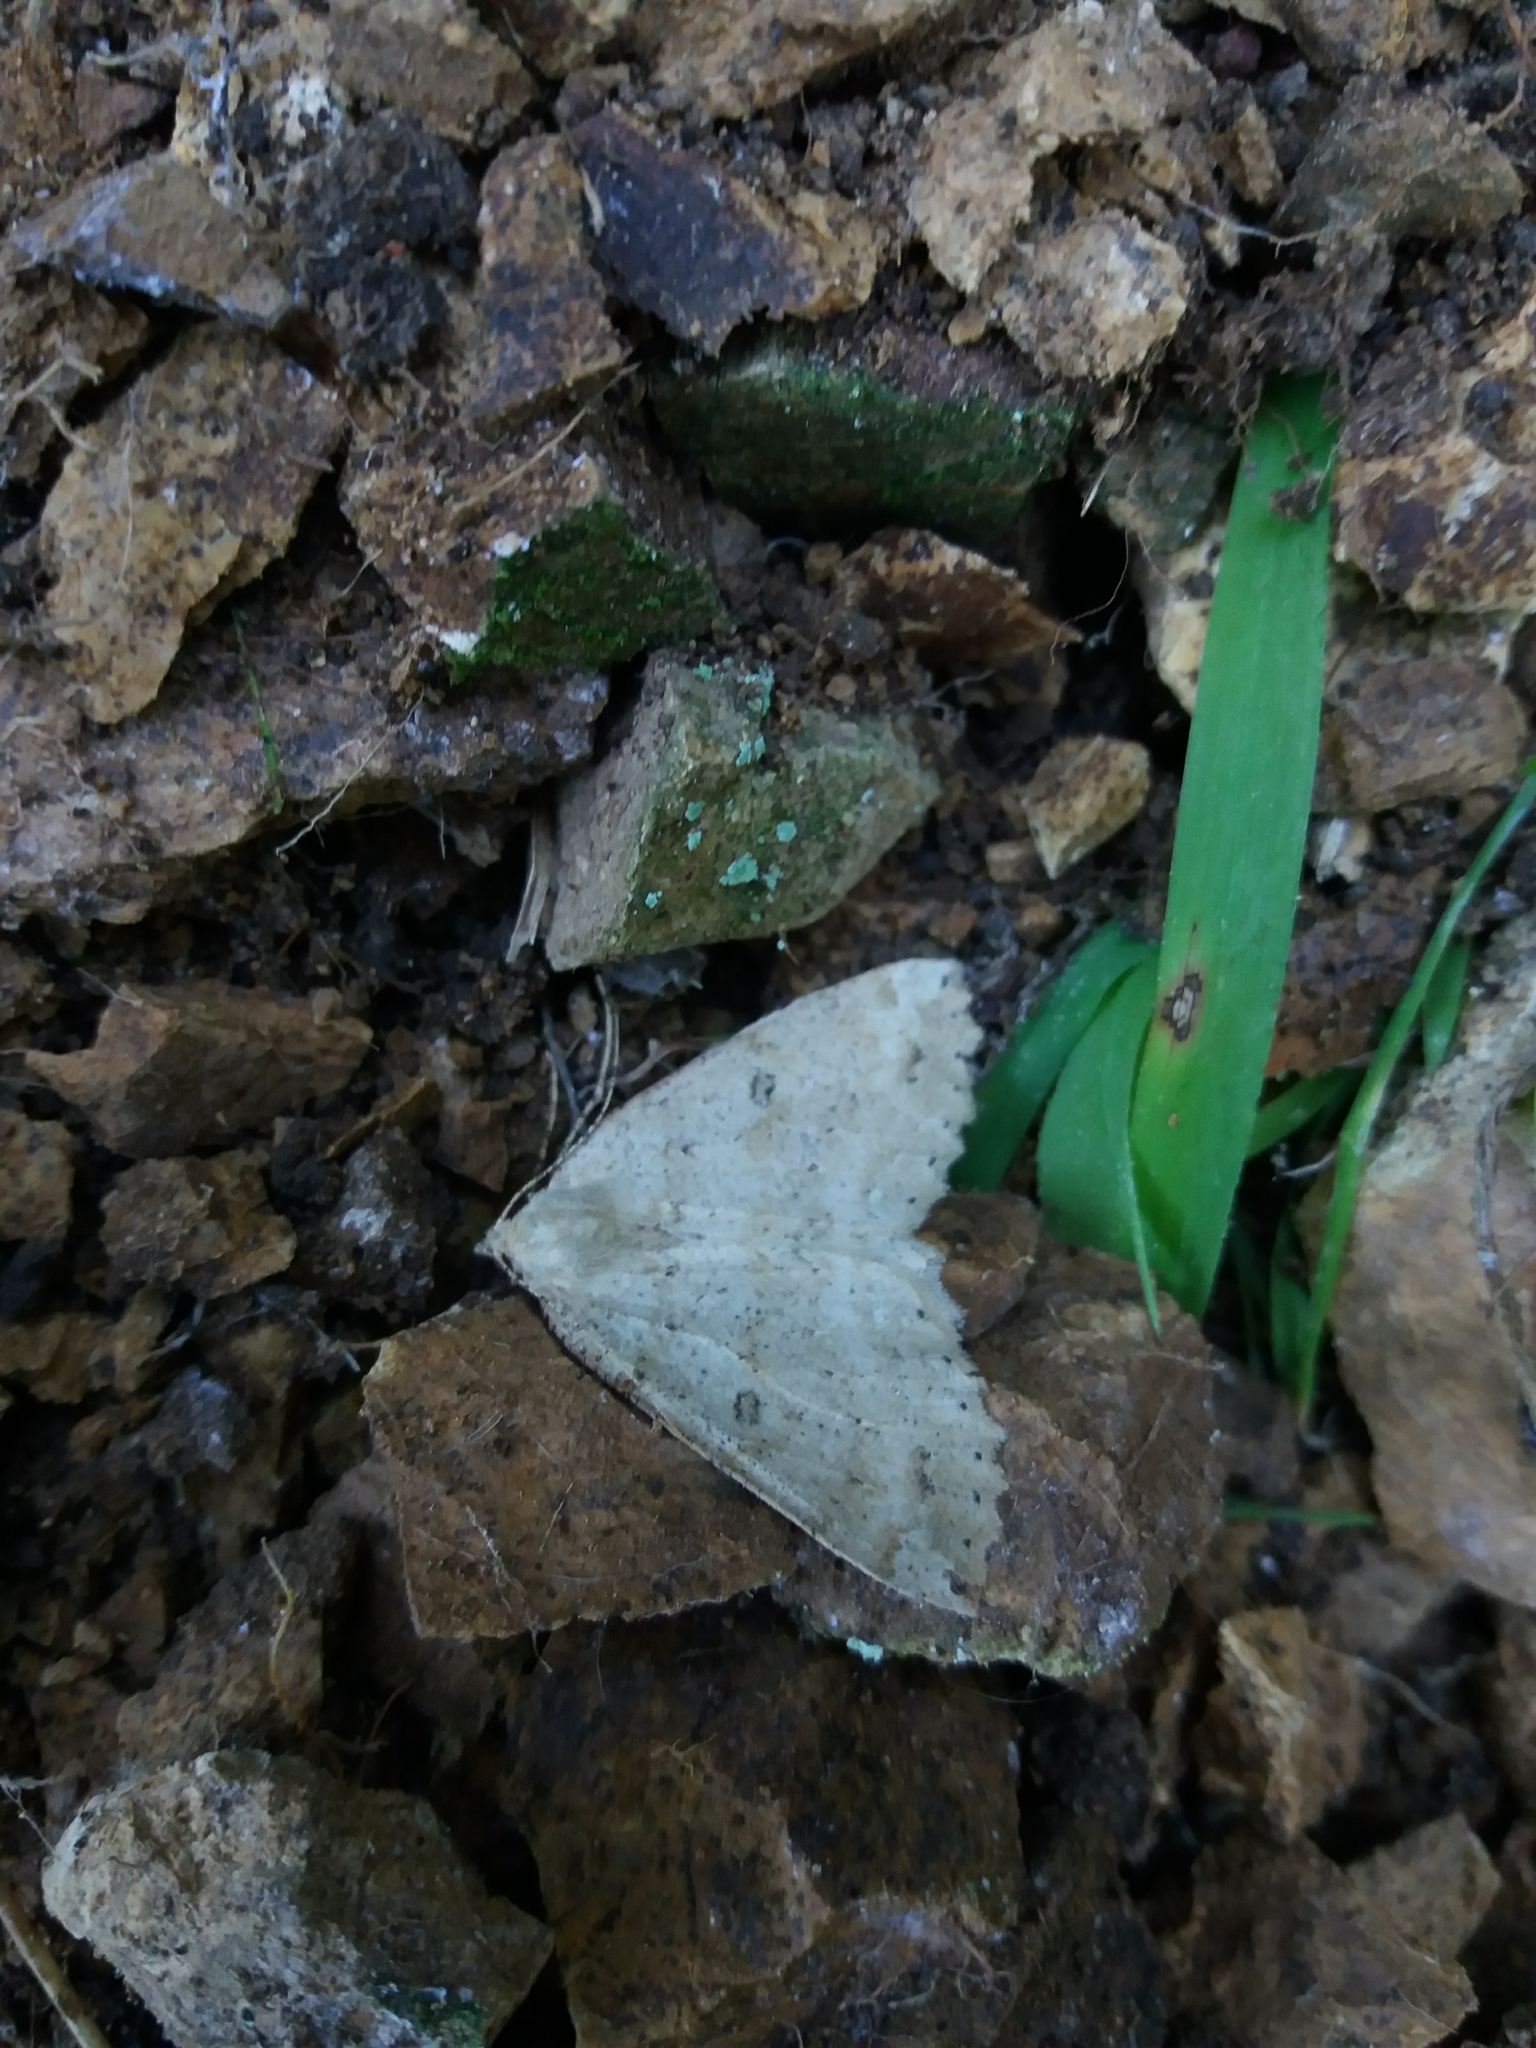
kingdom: Animalia
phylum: Arthropoda
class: Insecta
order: Lepidoptera
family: Geometridae
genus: Cleora
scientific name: Cleora scriptaria
